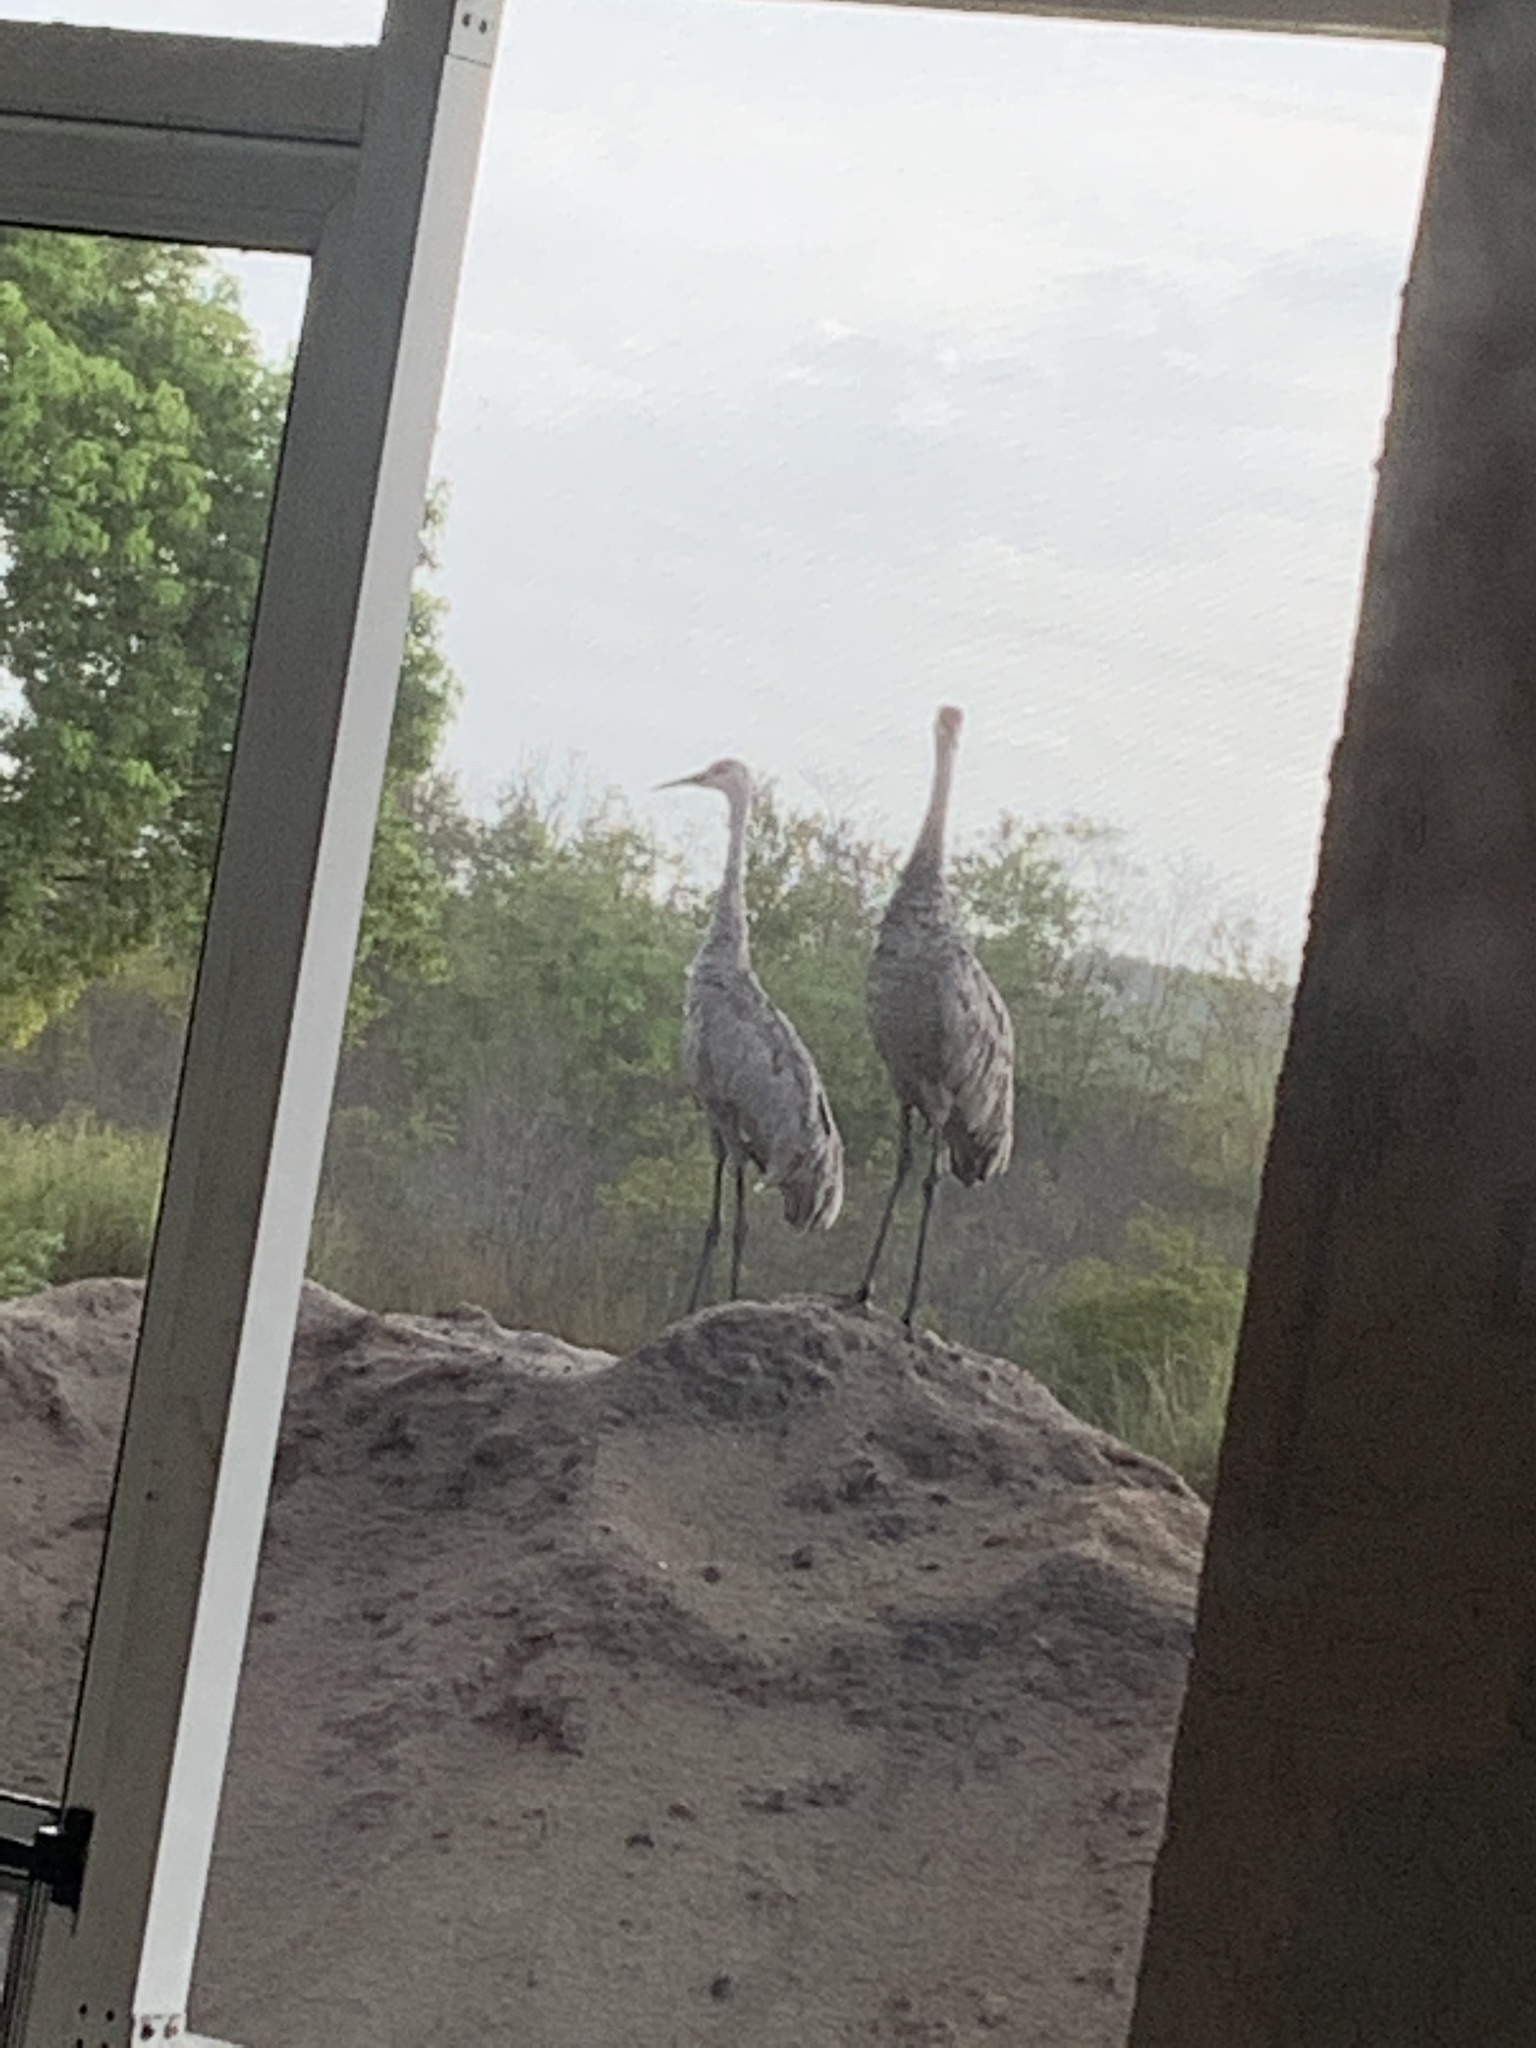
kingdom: Animalia
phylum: Chordata
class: Aves
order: Gruiformes
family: Gruidae
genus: Grus
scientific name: Grus canadensis
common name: Sandhill crane
